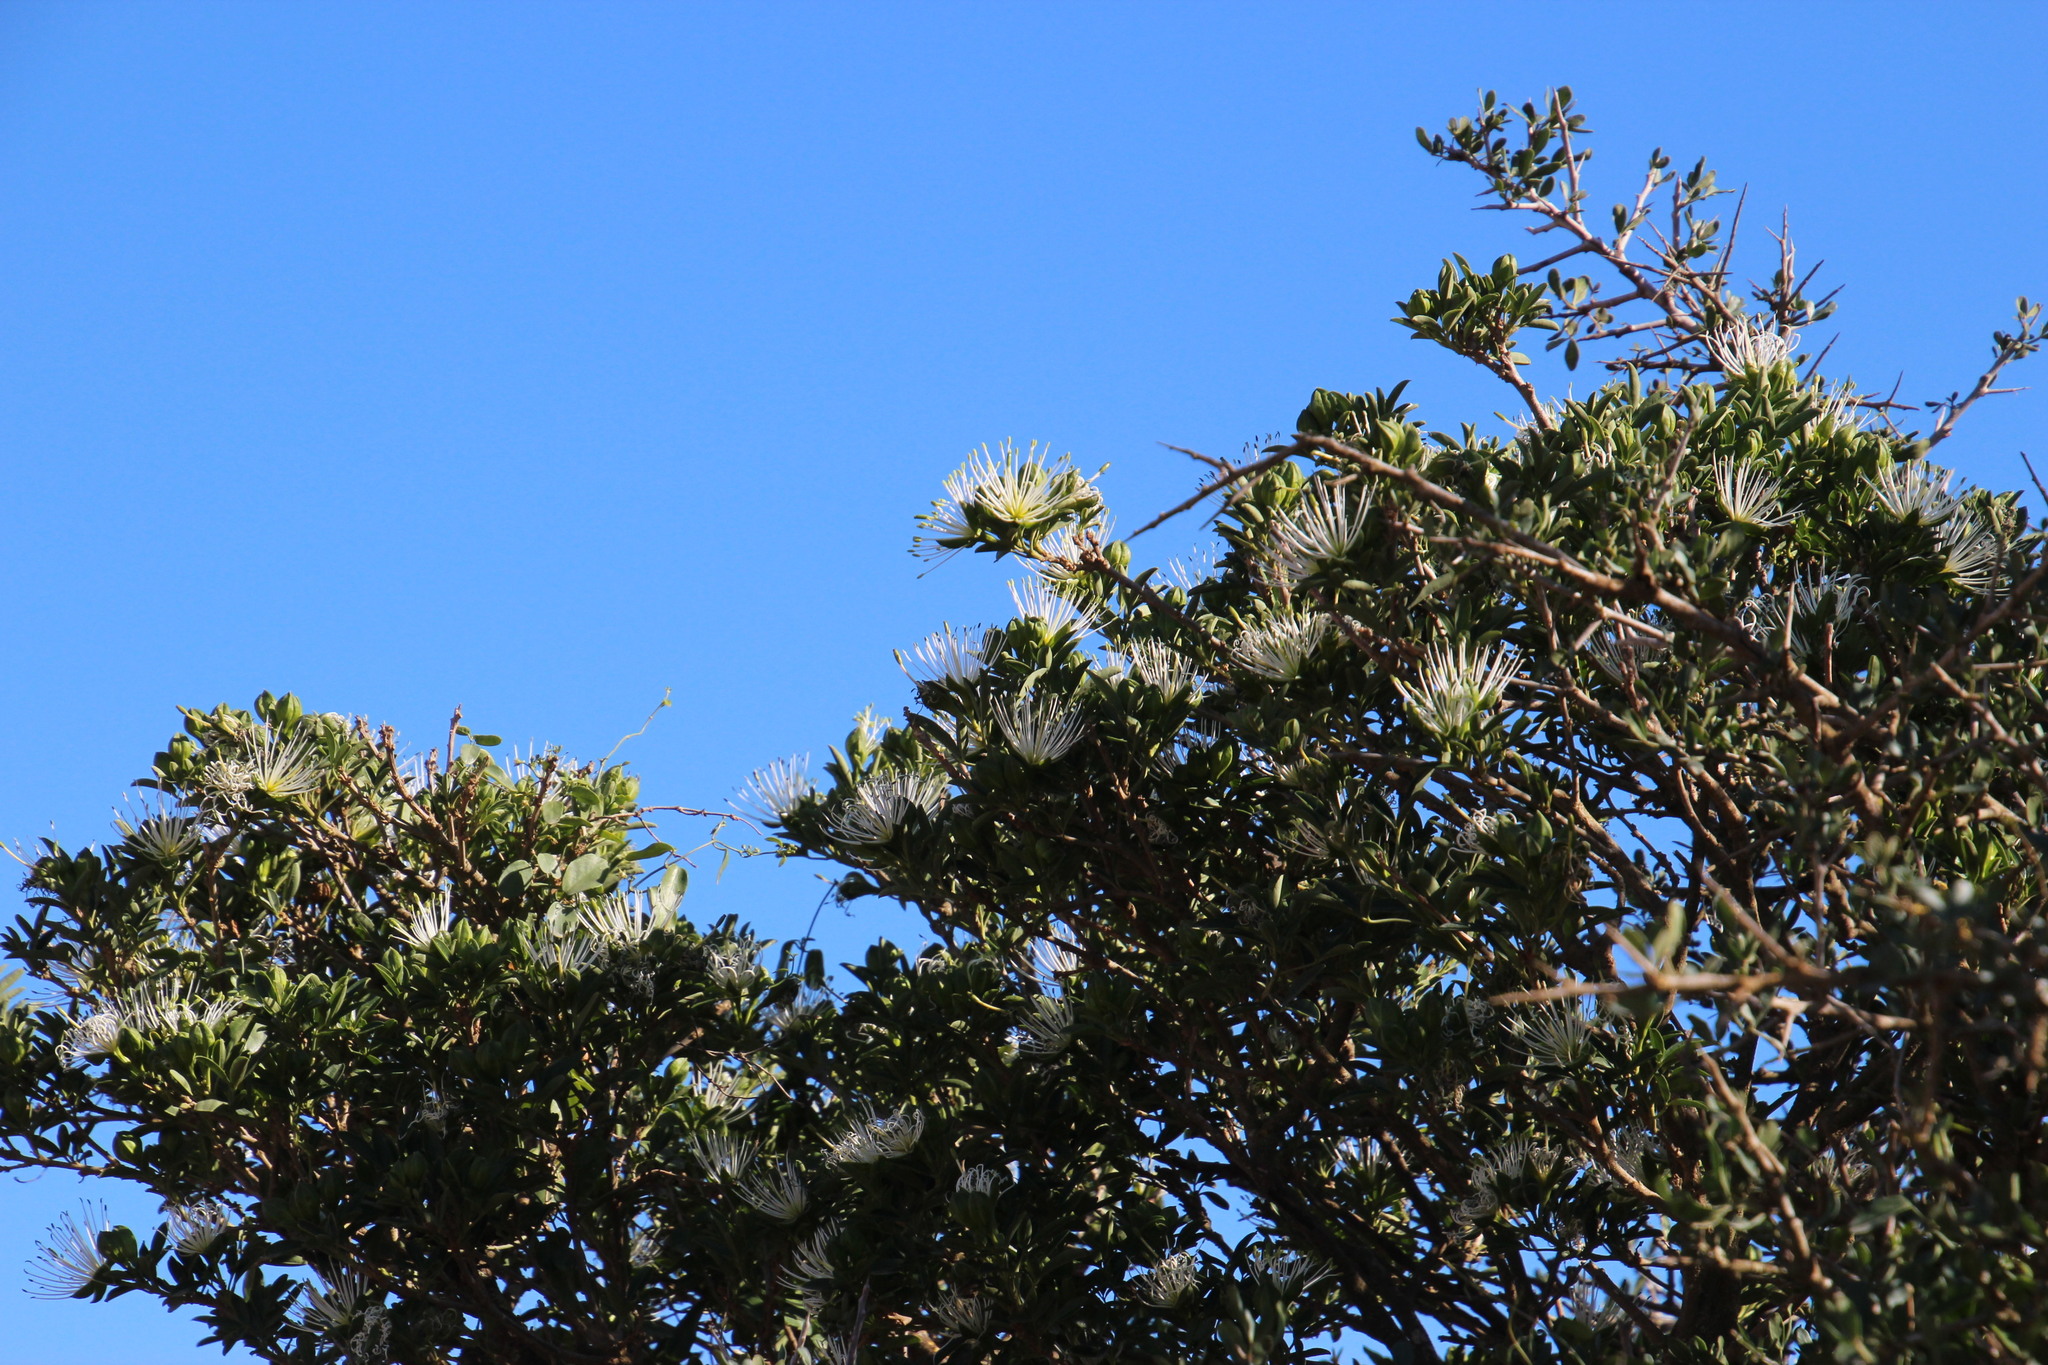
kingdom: Plantae
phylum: Tracheophyta
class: Magnoliopsida
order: Brassicales
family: Capparaceae
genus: Maerua
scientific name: Maerua cafra
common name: Bush maerua
